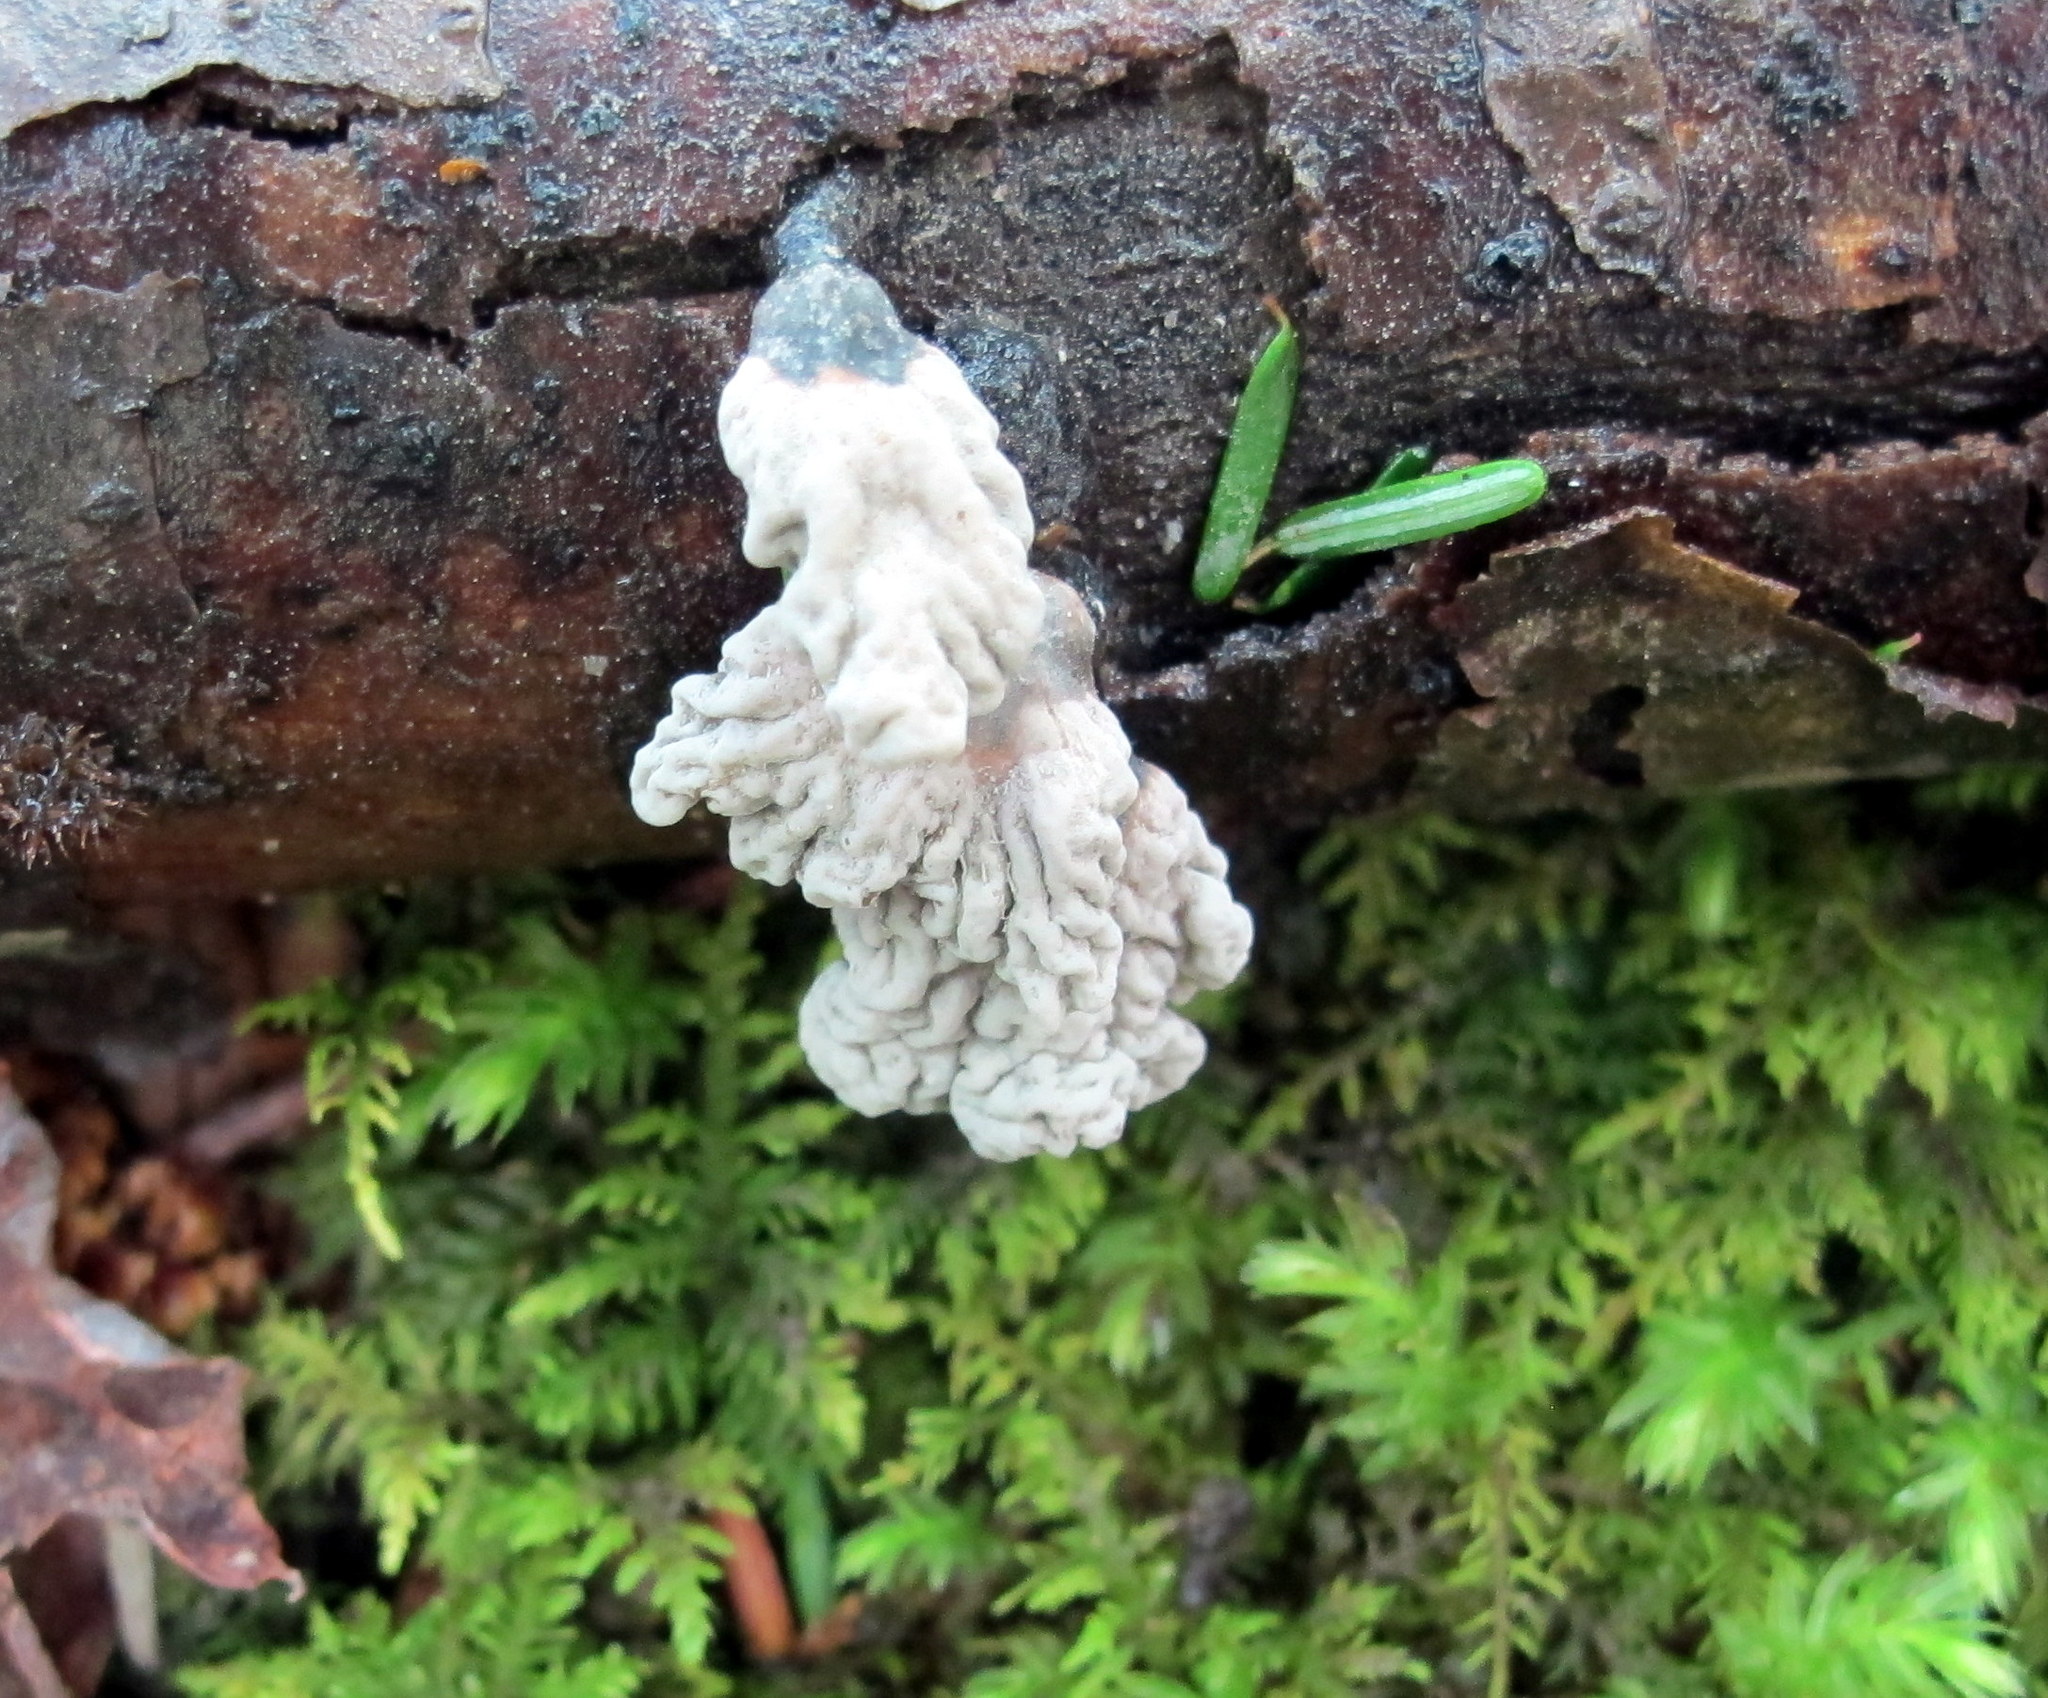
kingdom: Fungi
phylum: Ascomycota
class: Sordariomycetes
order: Xylariales
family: Xylariaceae
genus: Xylaria
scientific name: Xylaria cubensis
